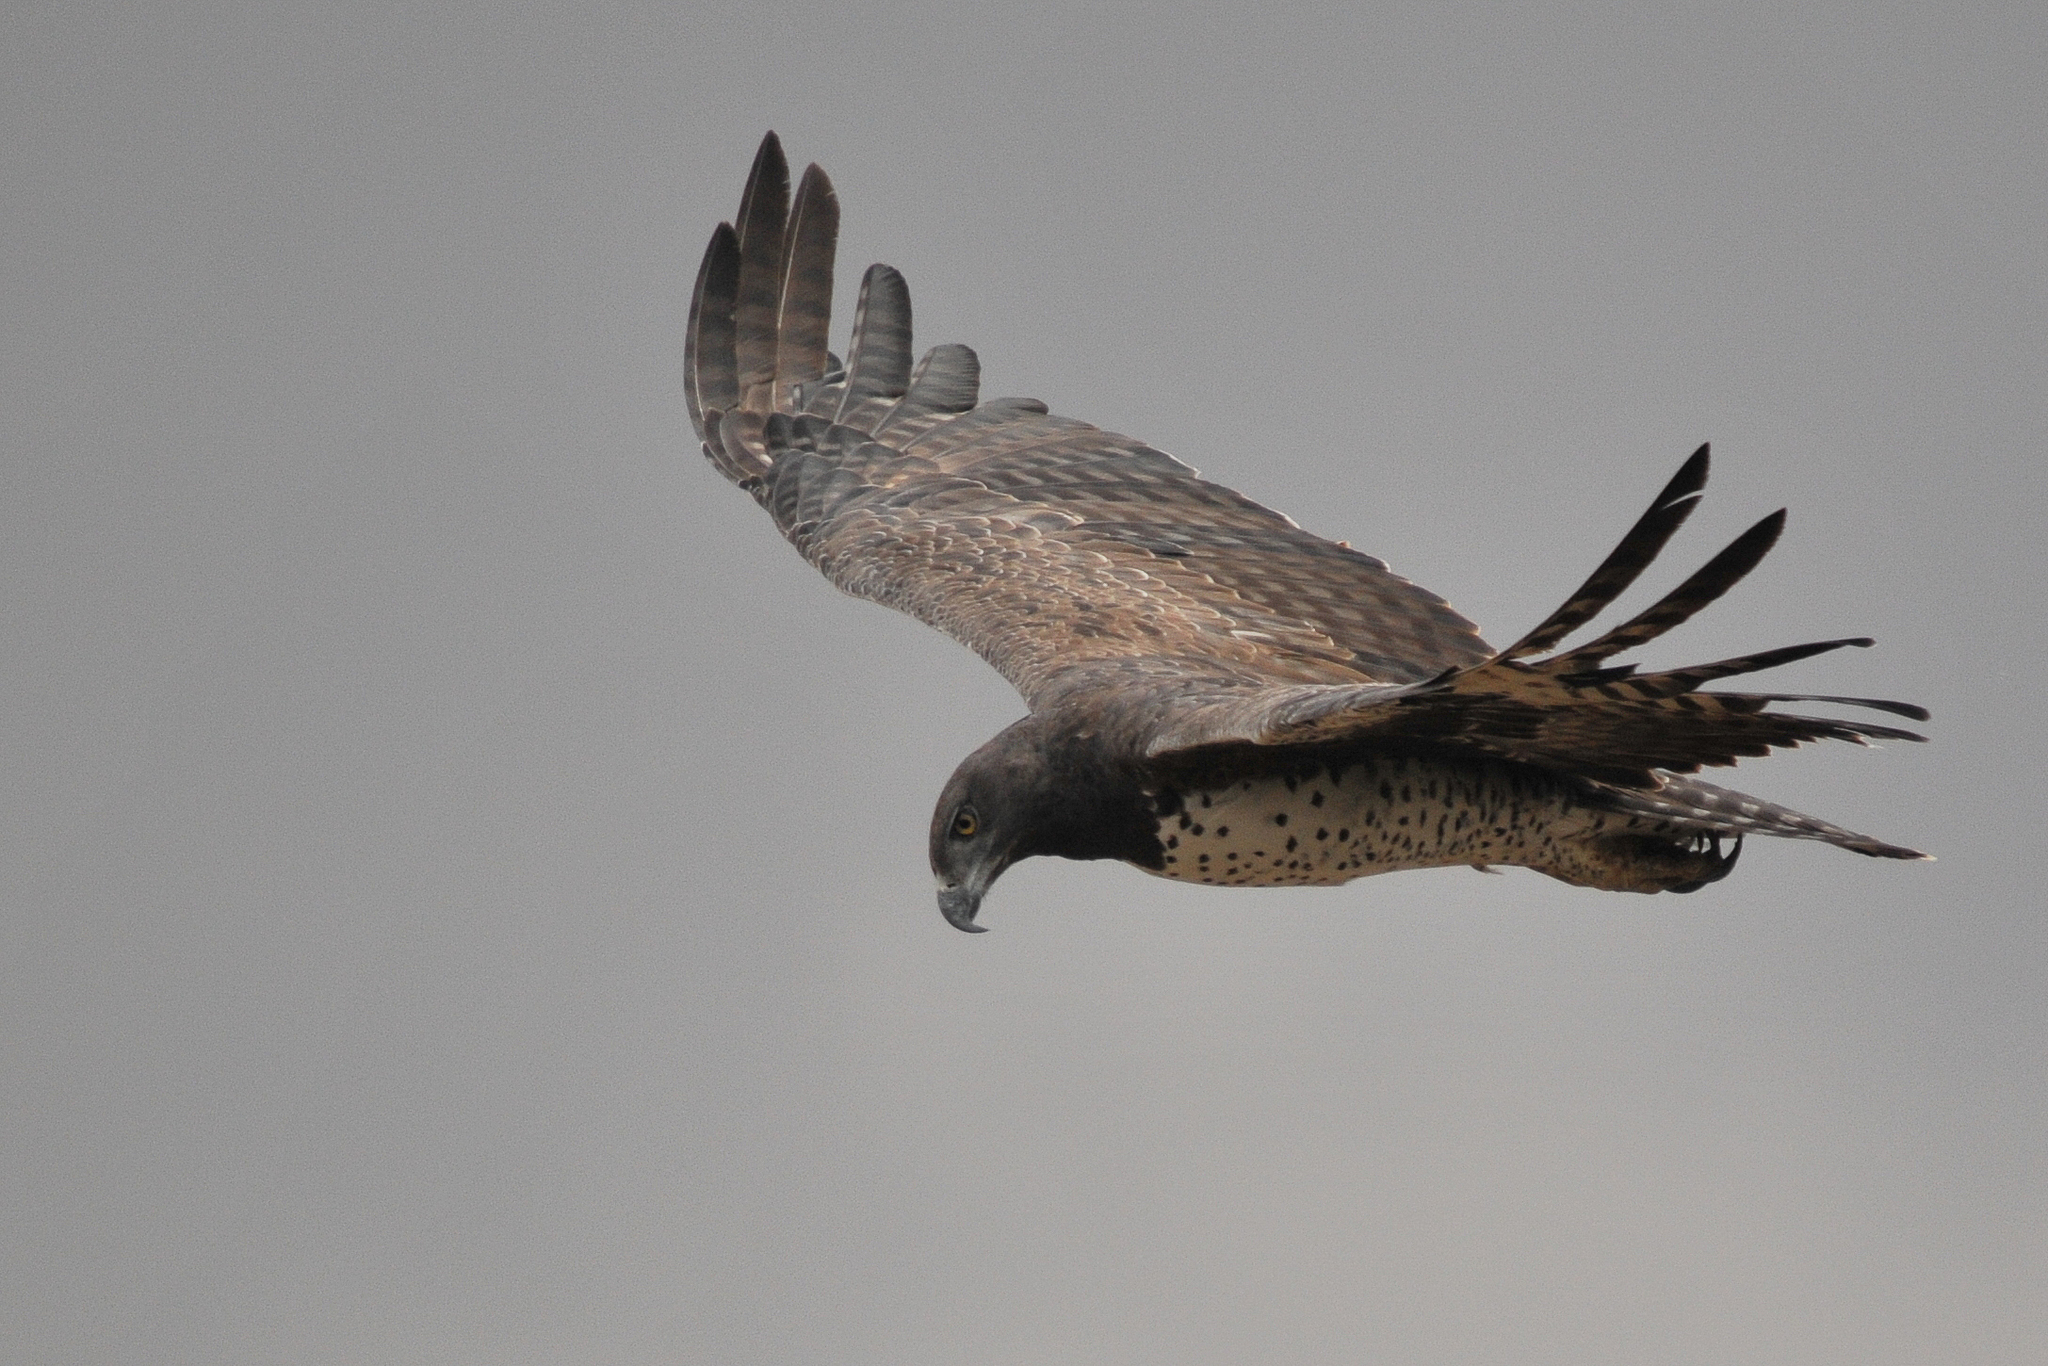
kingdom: Animalia
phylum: Chordata
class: Aves
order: Accipitriformes
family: Accipitridae
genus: Polemaetus
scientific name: Polemaetus bellicosus
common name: Martial eagle
